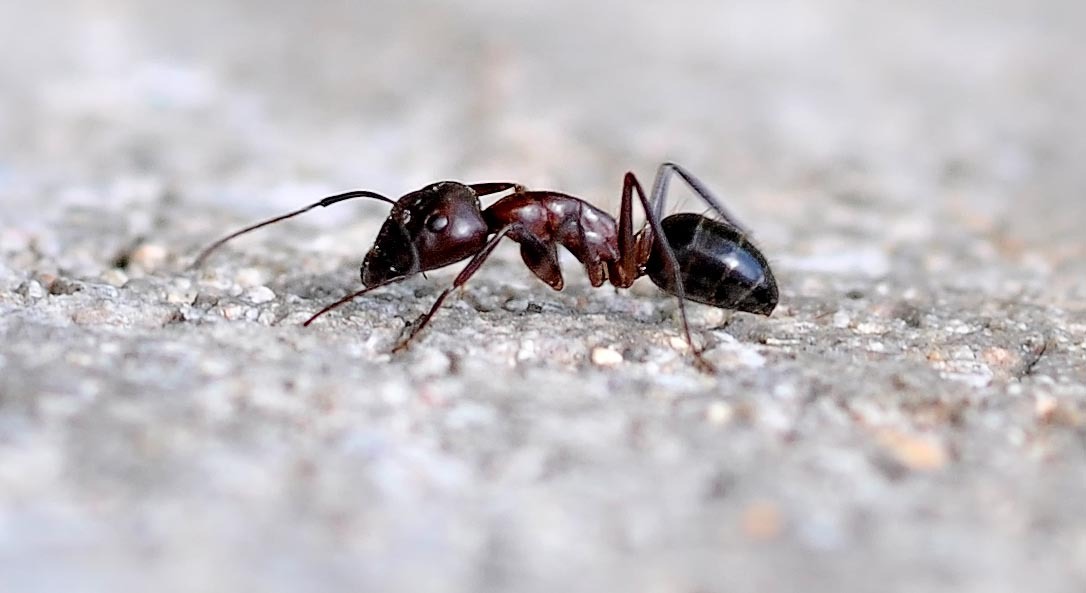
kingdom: Animalia
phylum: Arthropoda
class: Insecta
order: Hymenoptera
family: Formicidae
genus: Camponotus
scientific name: Camponotus sylvaticus
